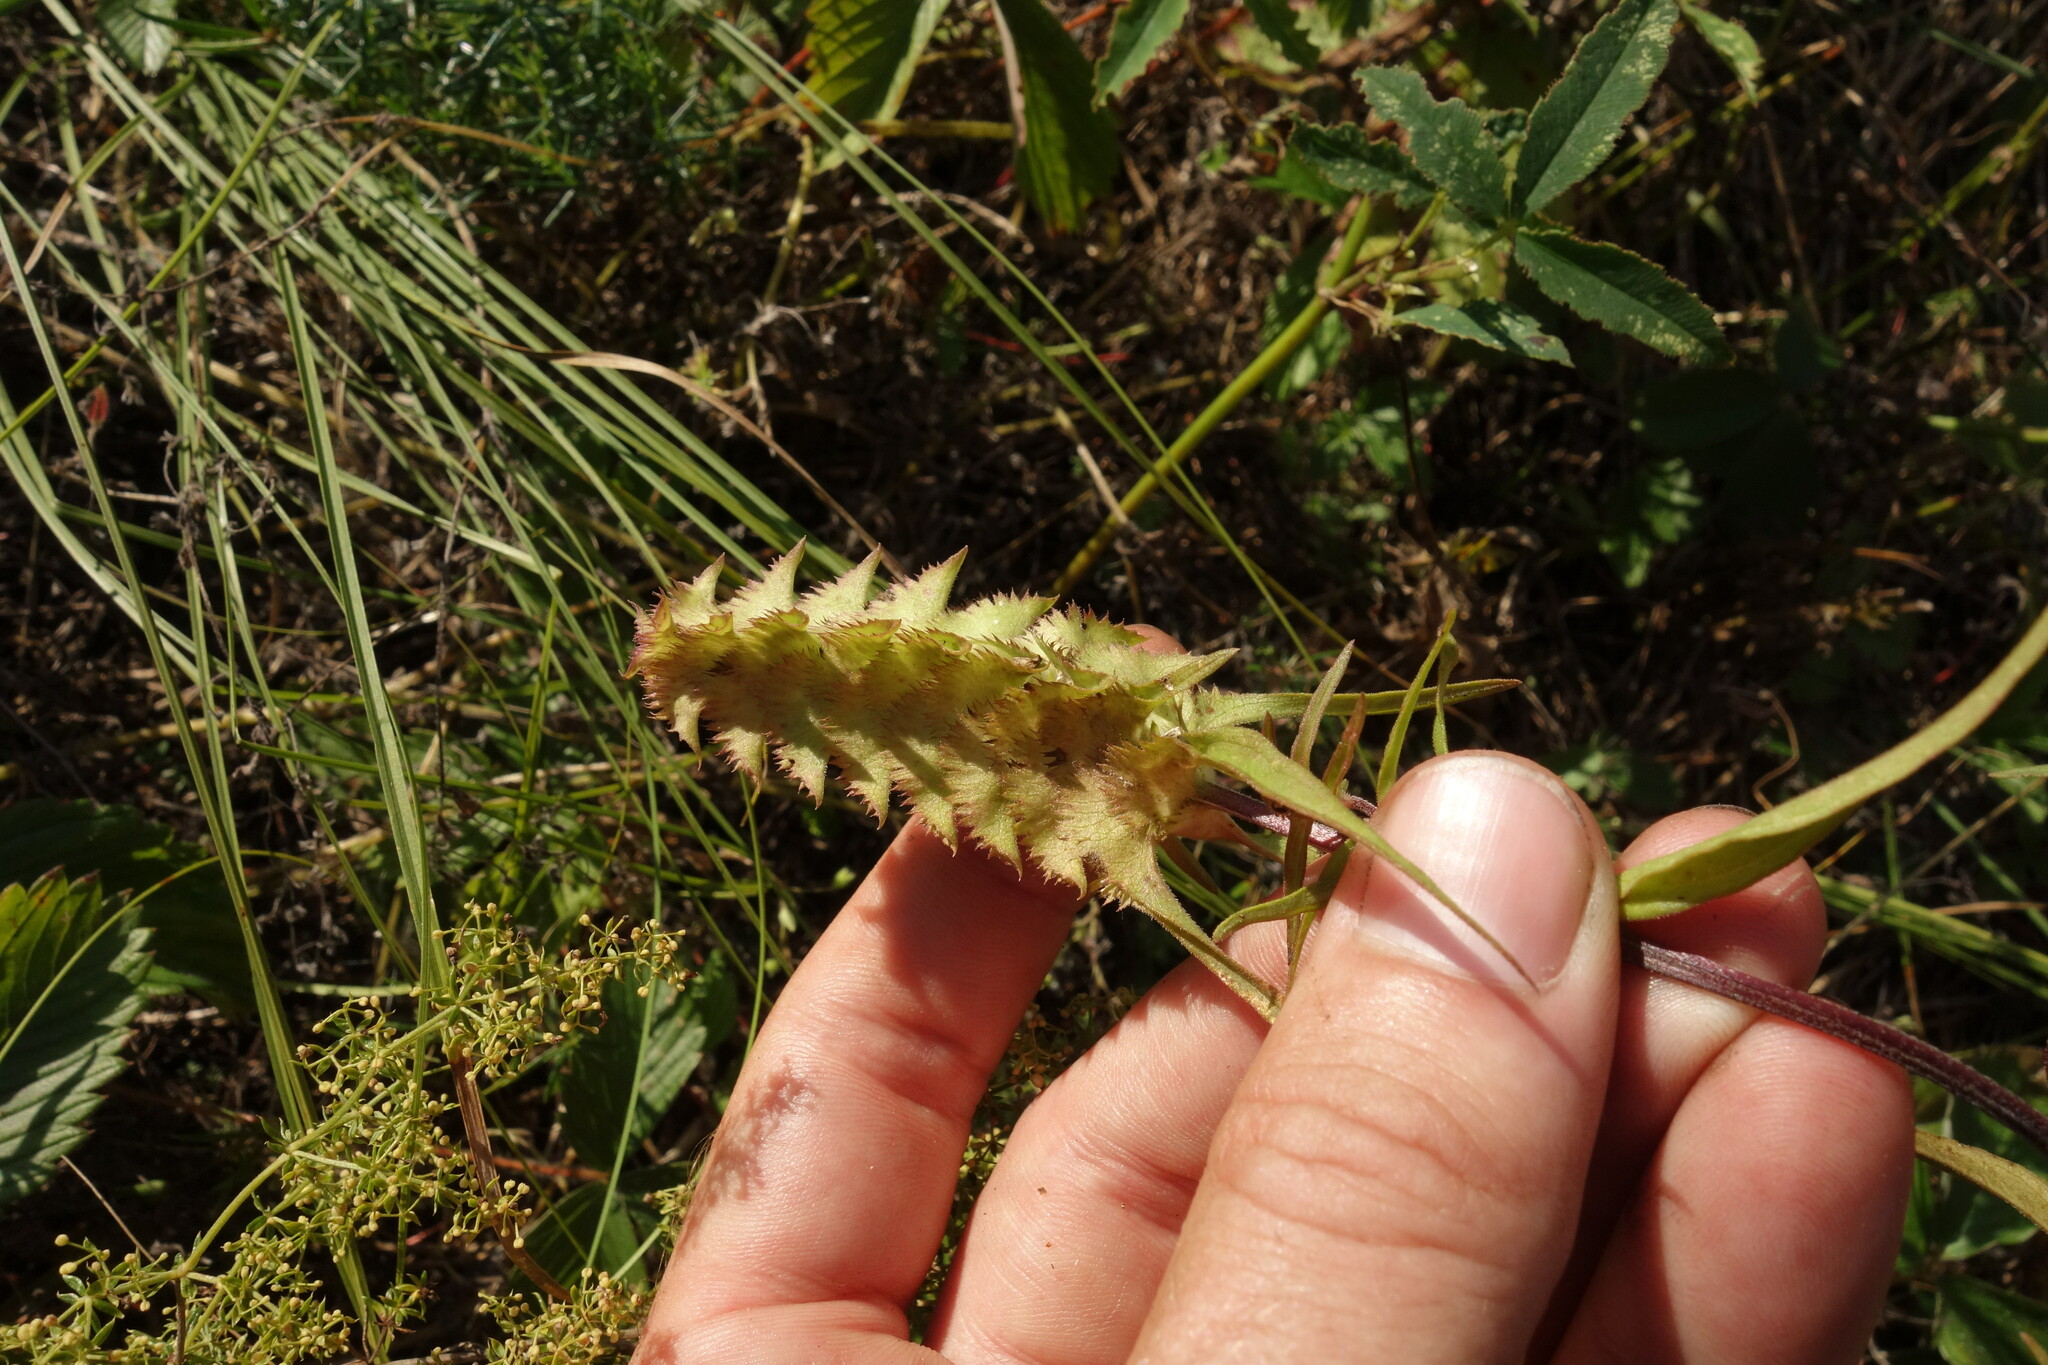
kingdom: Plantae
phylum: Tracheophyta
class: Magnoliopsida
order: Lamiales
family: Orobanchaceae
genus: Melampyrum
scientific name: Melampyrum cristatum
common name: Crested cow-wheat
